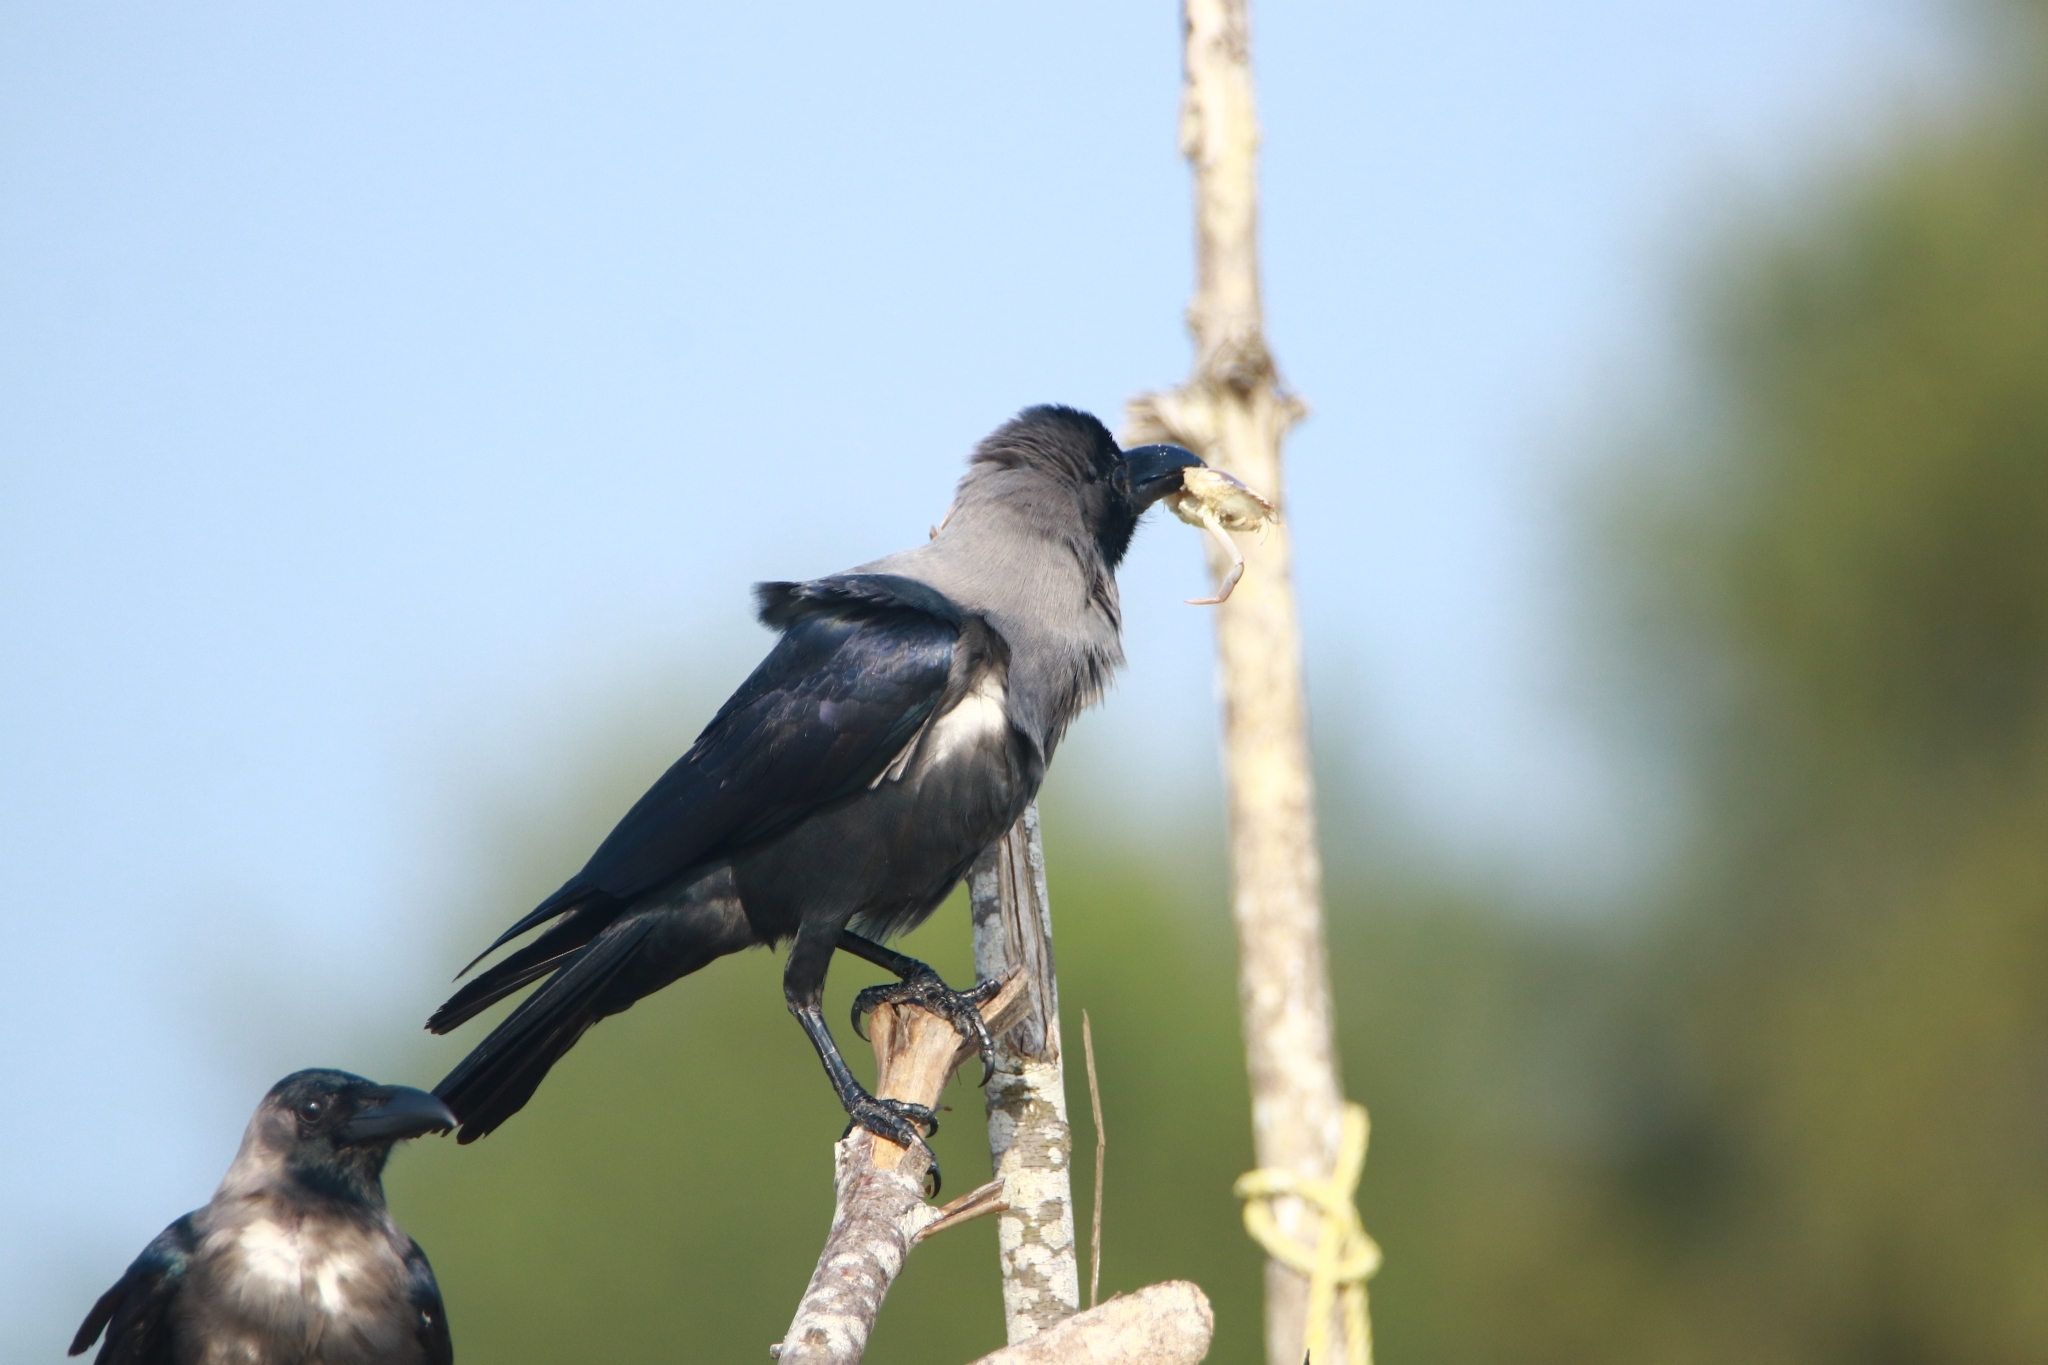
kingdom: Animalia
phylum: Chordata
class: Aves
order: Passeriformes
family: Corvidae
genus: Corvus
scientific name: Corvus splendens
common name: House crow
